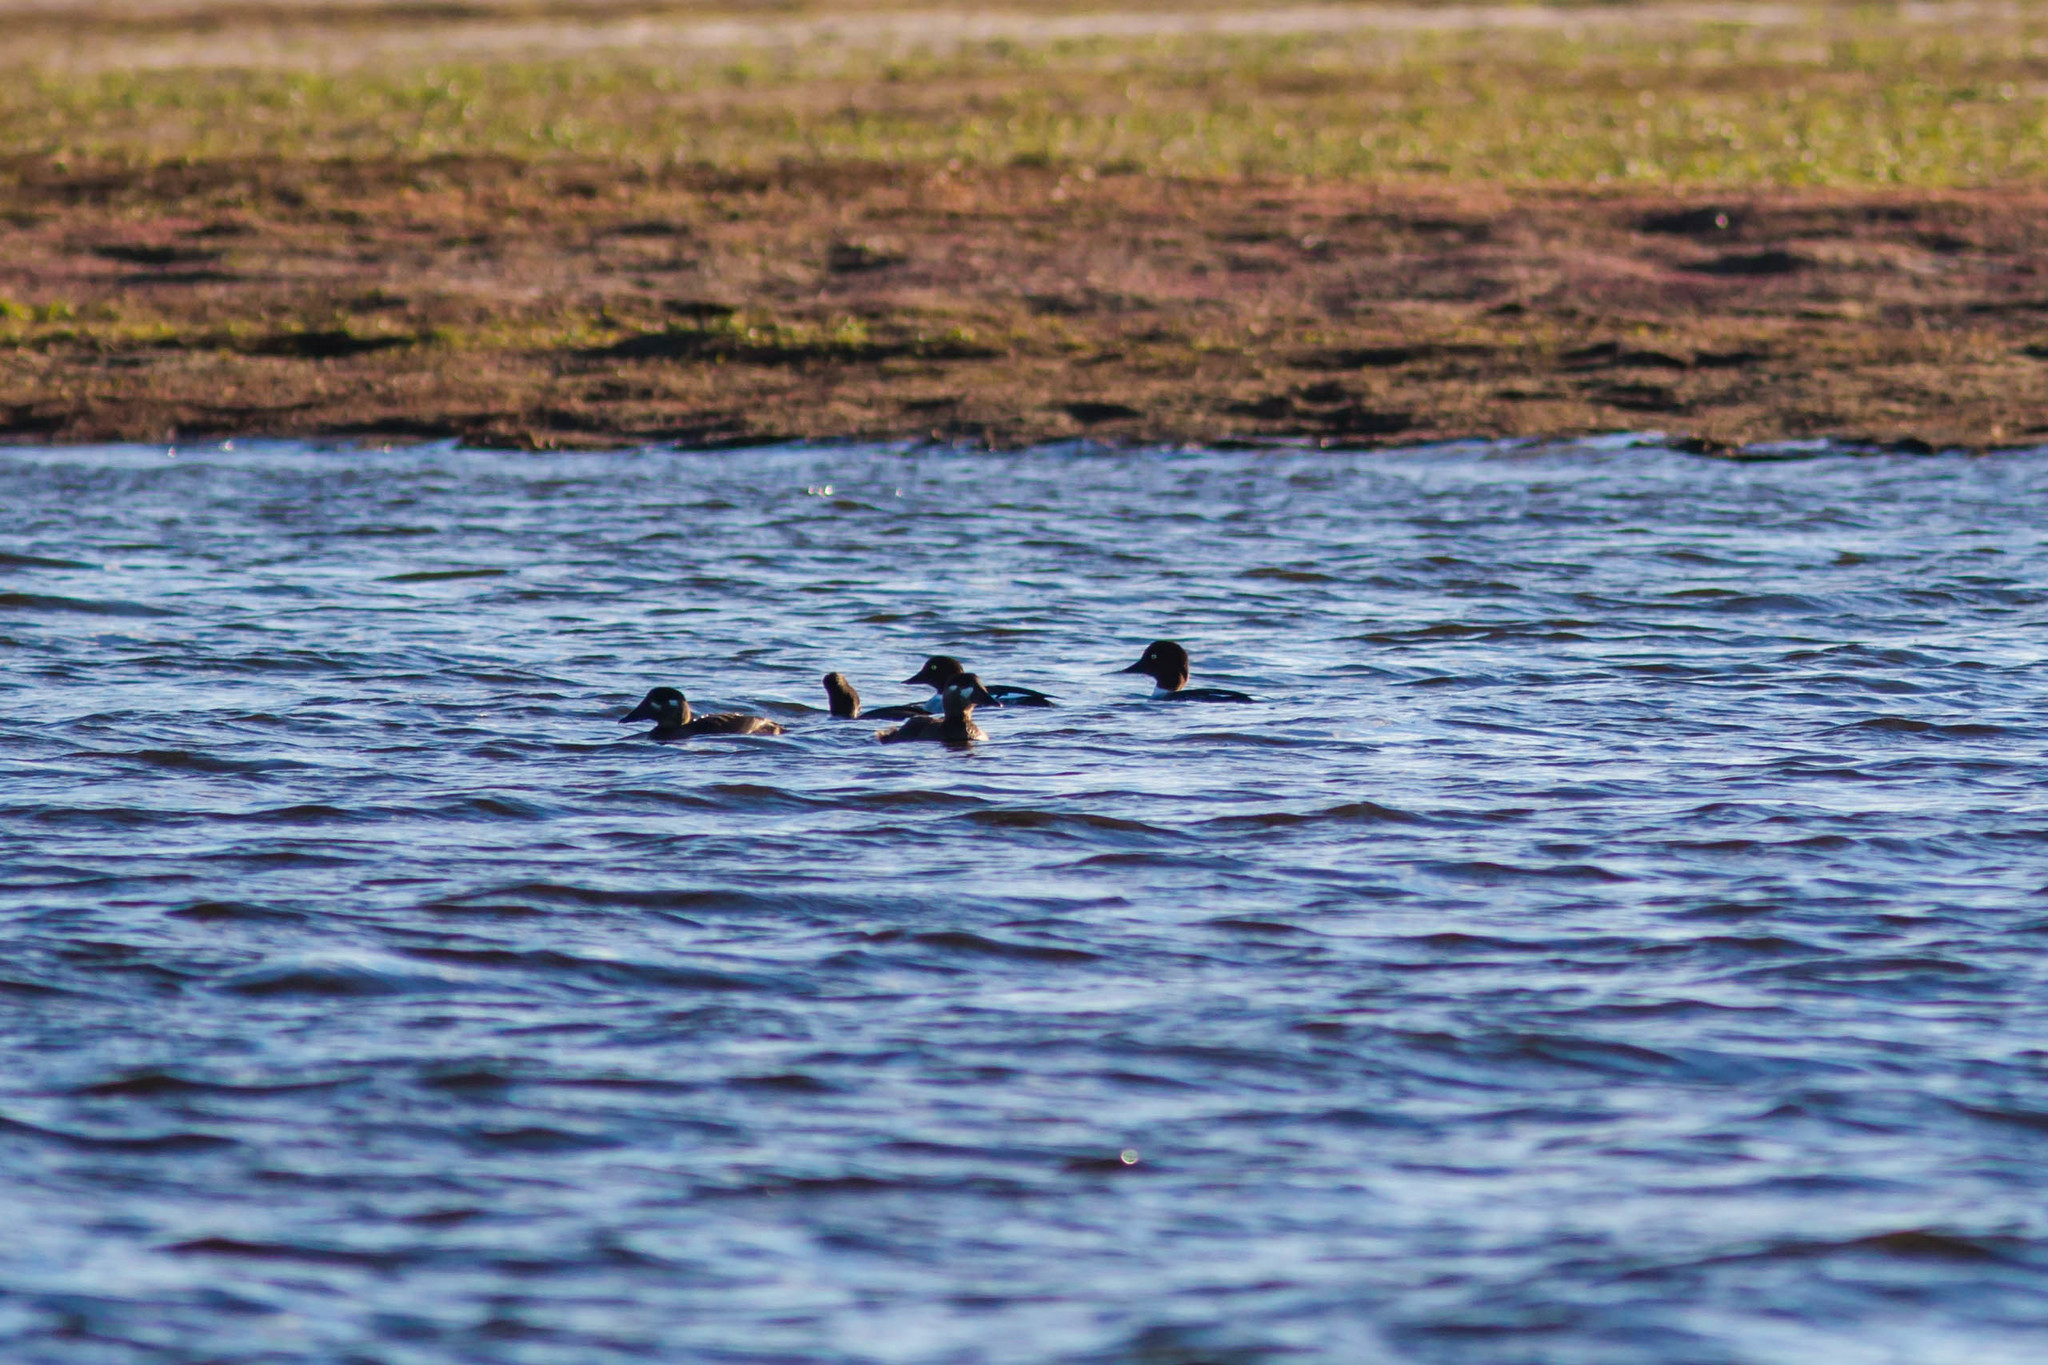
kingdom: Animalia
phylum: Chordata
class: Aves
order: Anseriformes
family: Anatidae
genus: Bucephala
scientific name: Bucephala clangula
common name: Common goldeneye
